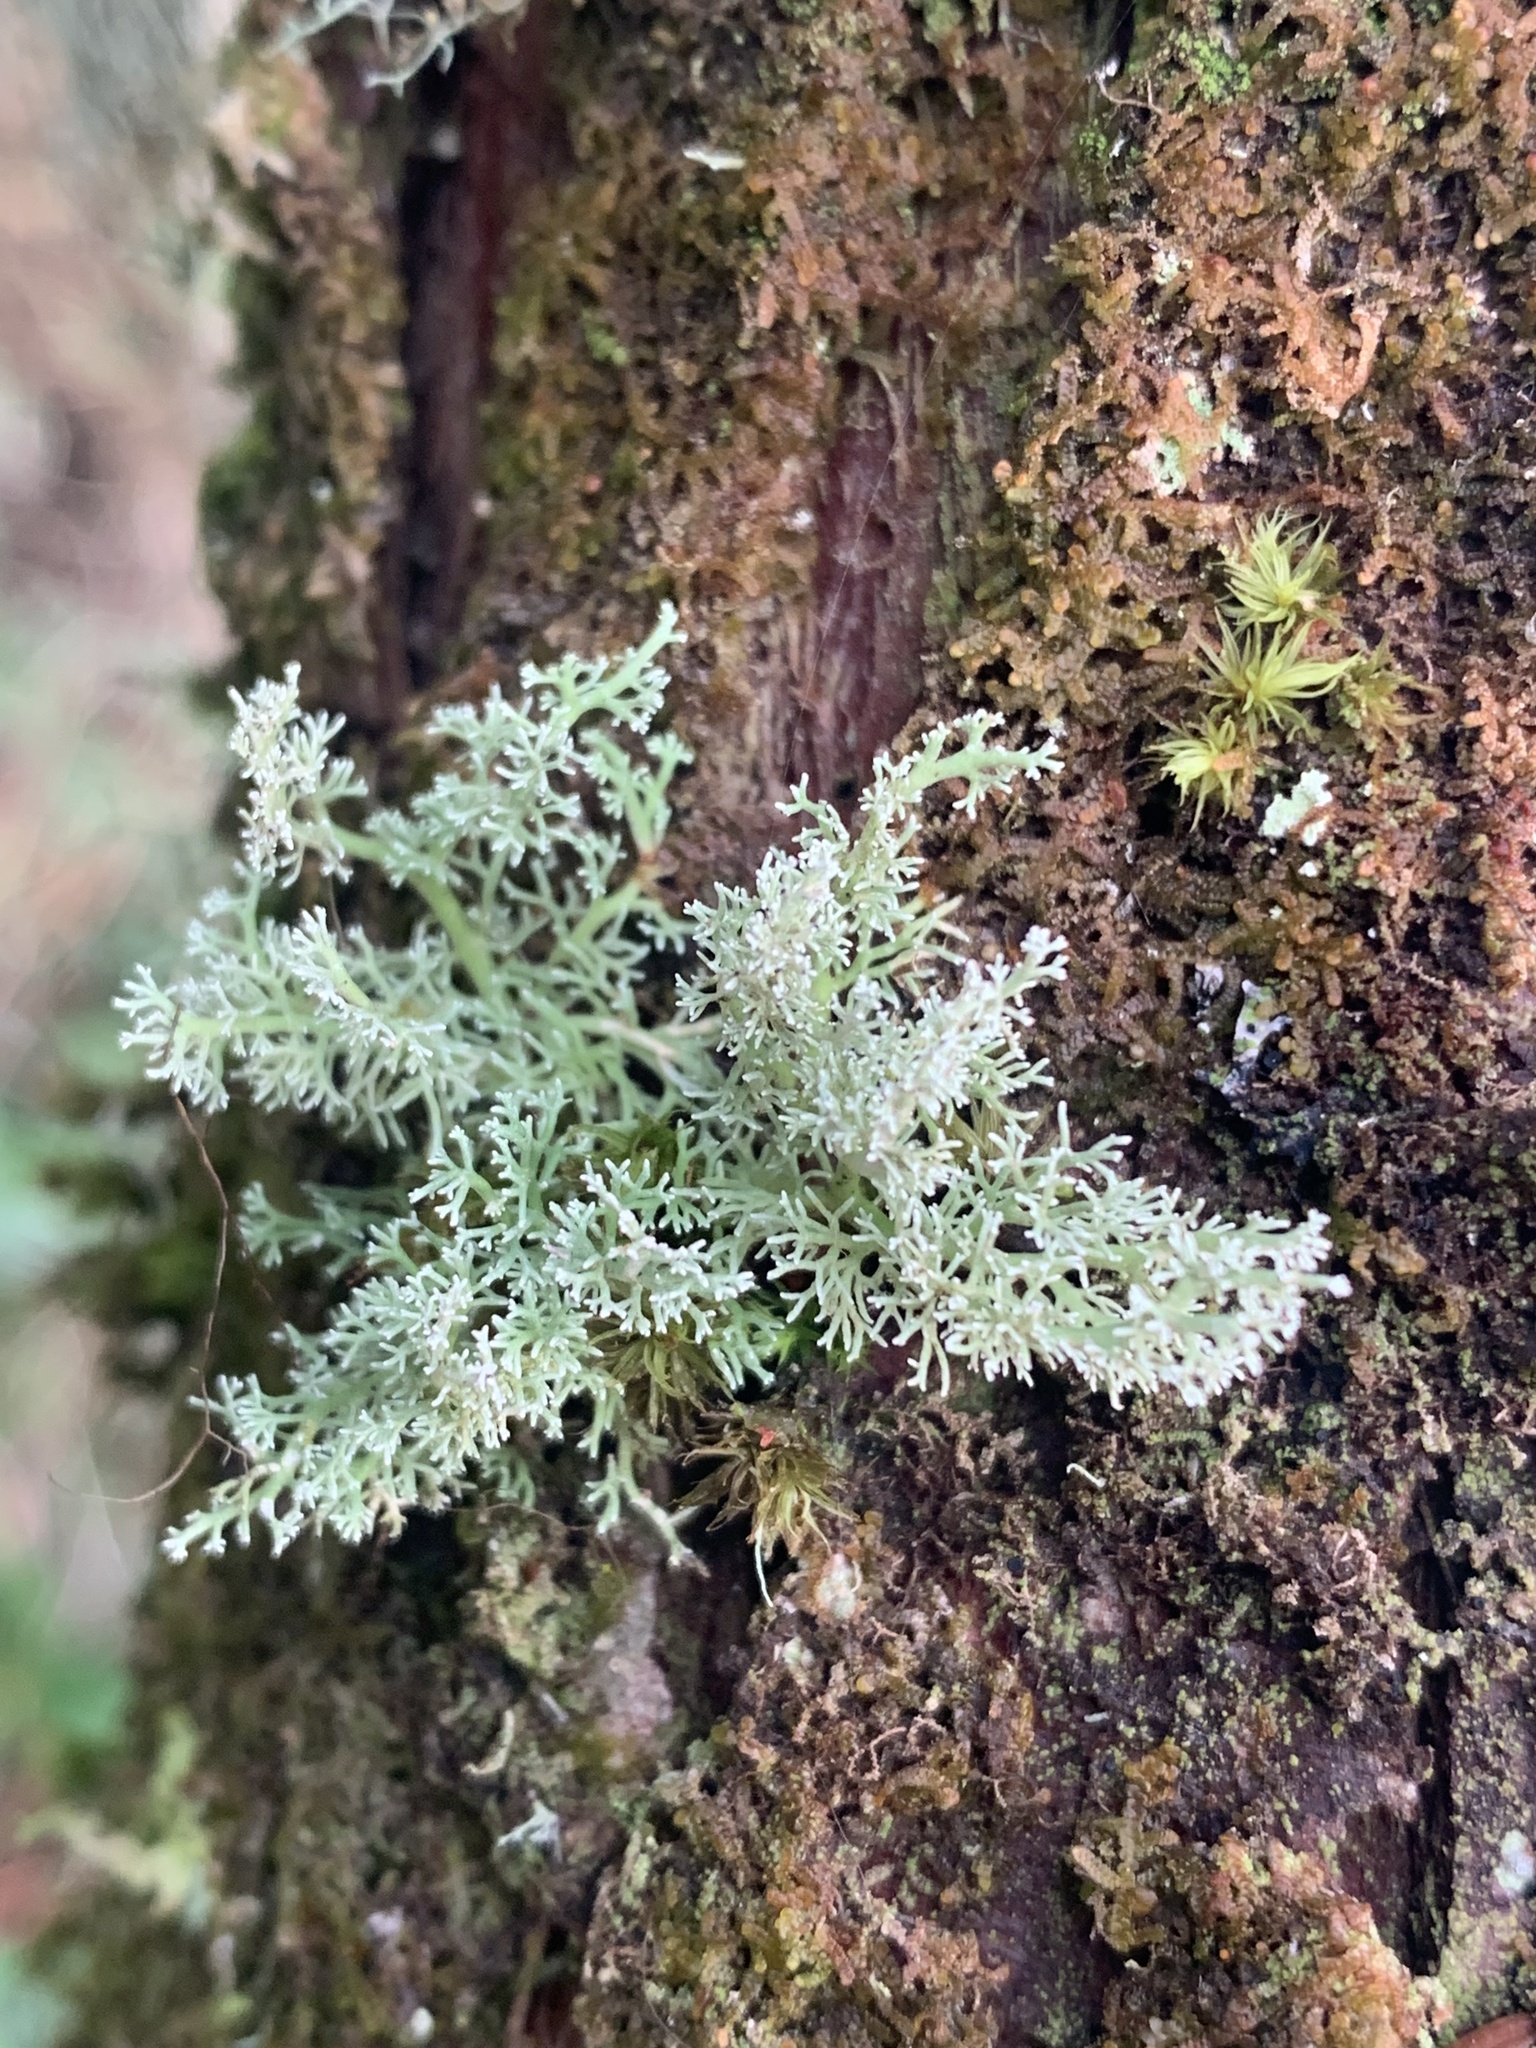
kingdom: Fungi
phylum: Ascomycota
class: Lecanoromycetes
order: Lecanorales
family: Sphaerophoraceae
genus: Sphaerophorus
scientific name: Sphaerophorus globosus
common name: Globe ball lichen
